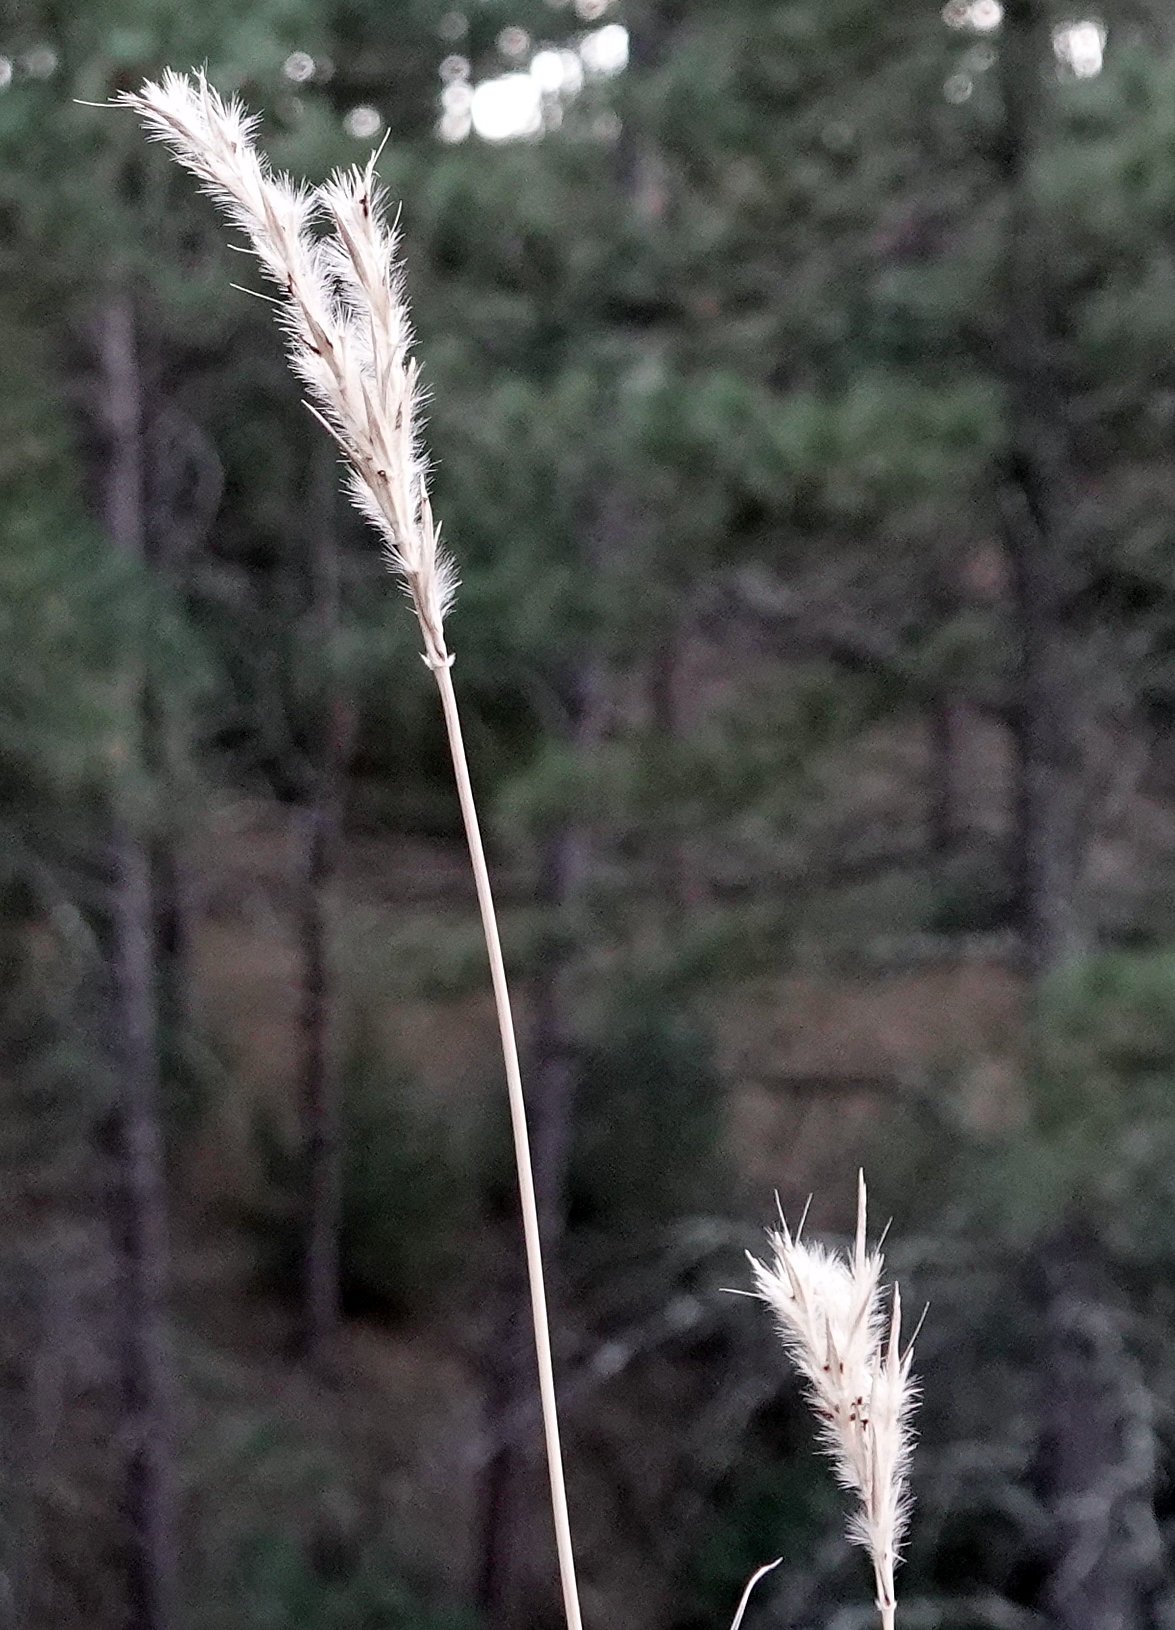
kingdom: Plantae
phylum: Tracheophyta
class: Liliopsida
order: Poales
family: Poaceae
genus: Andropogon
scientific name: Andropogon hallii
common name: Sand bluestem
